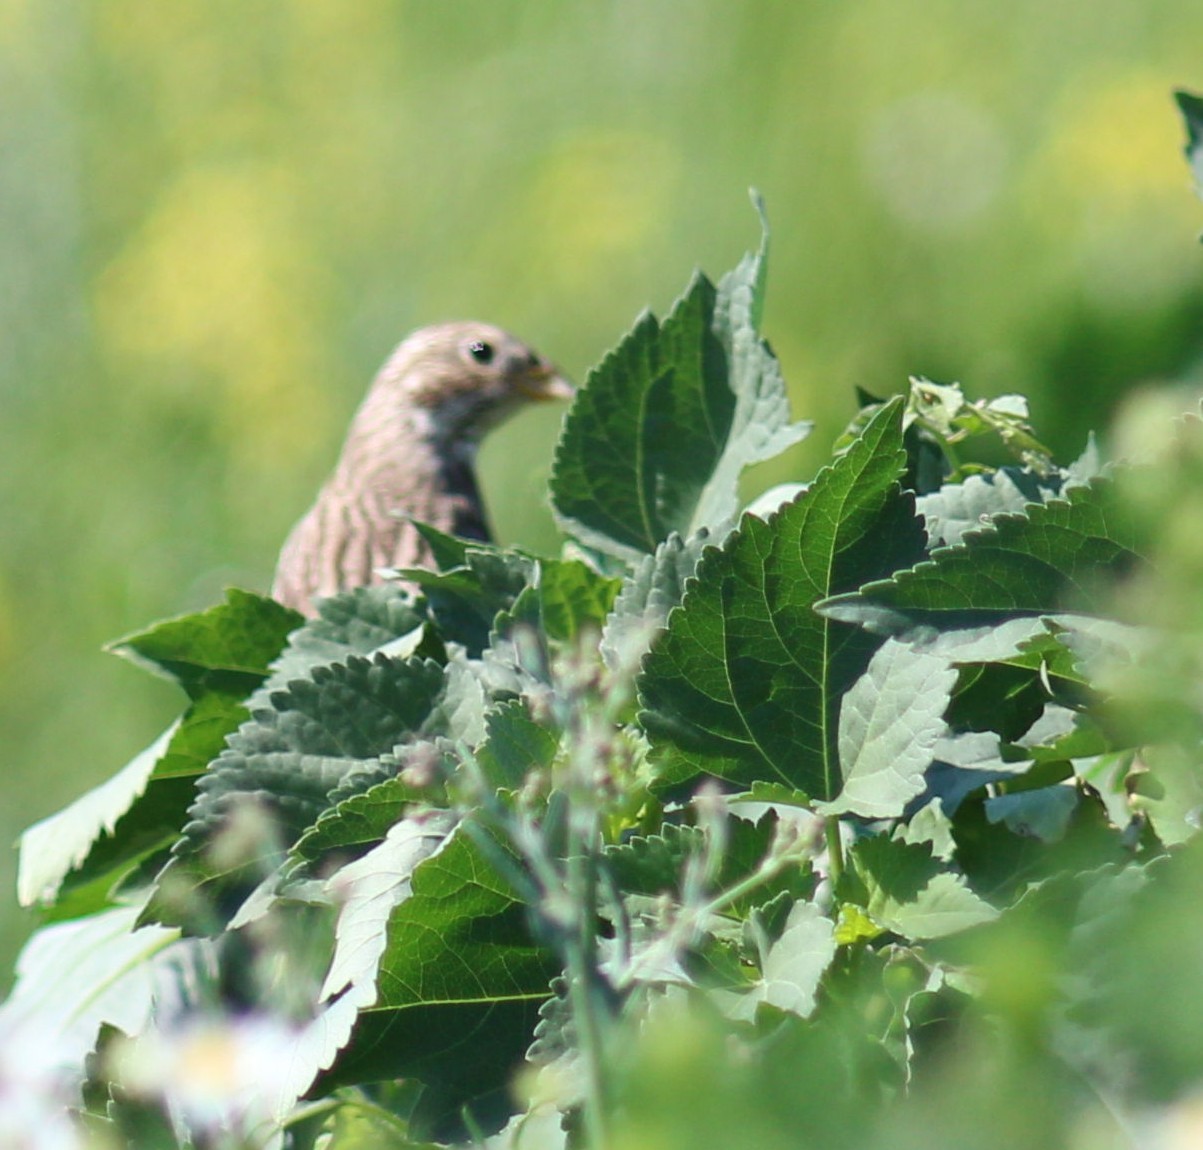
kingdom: Animalia
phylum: Chordata
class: Aves
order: Passeriformes
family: Emberizidae
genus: Emberiza
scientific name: Emberiza calandra
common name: Corn bunting
